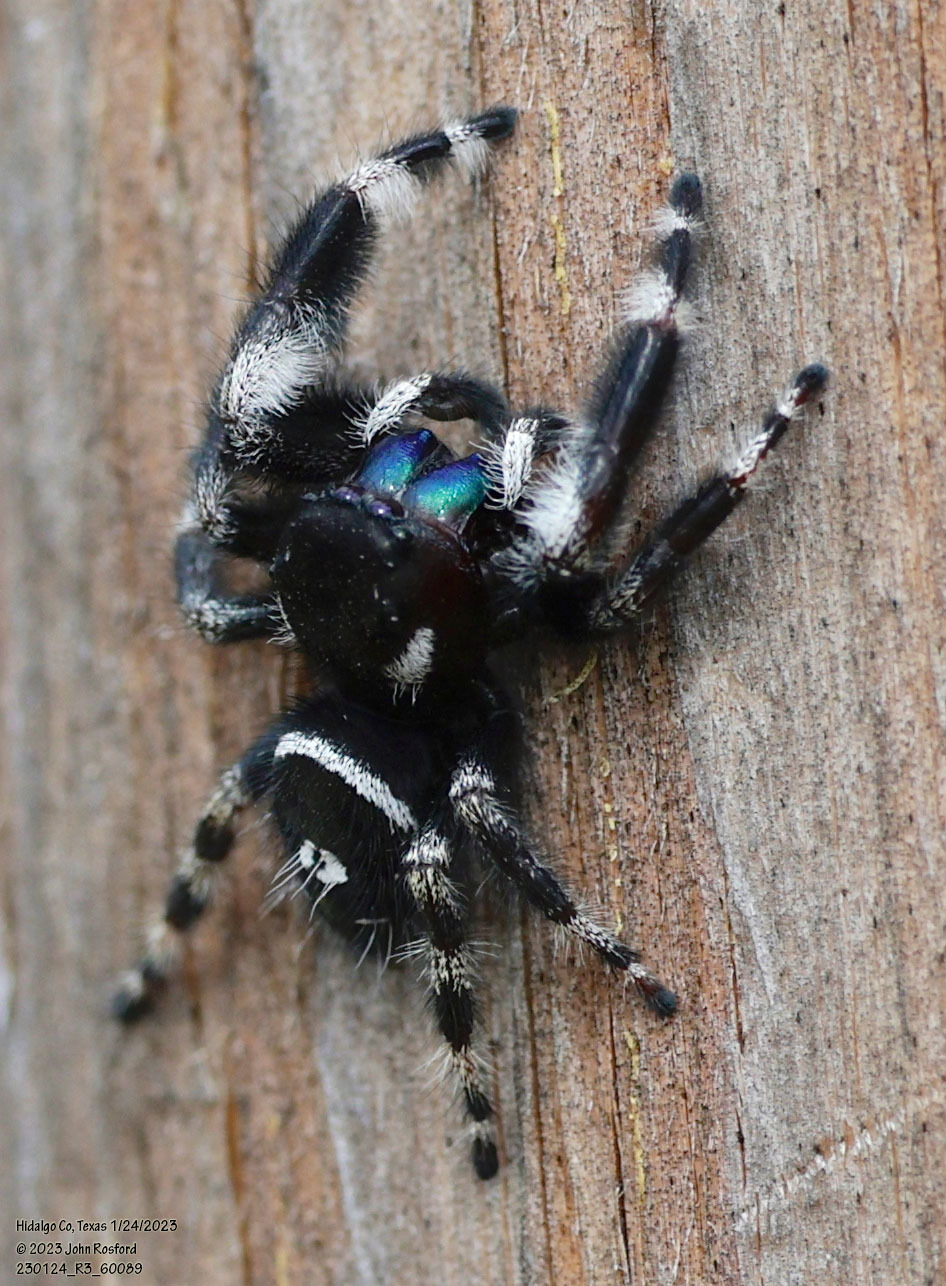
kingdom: Animalia
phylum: Arthropoda
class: Arachnida
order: Araneae
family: Salticidae
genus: Phidippus
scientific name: Phidippus audax
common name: Bold jumper
